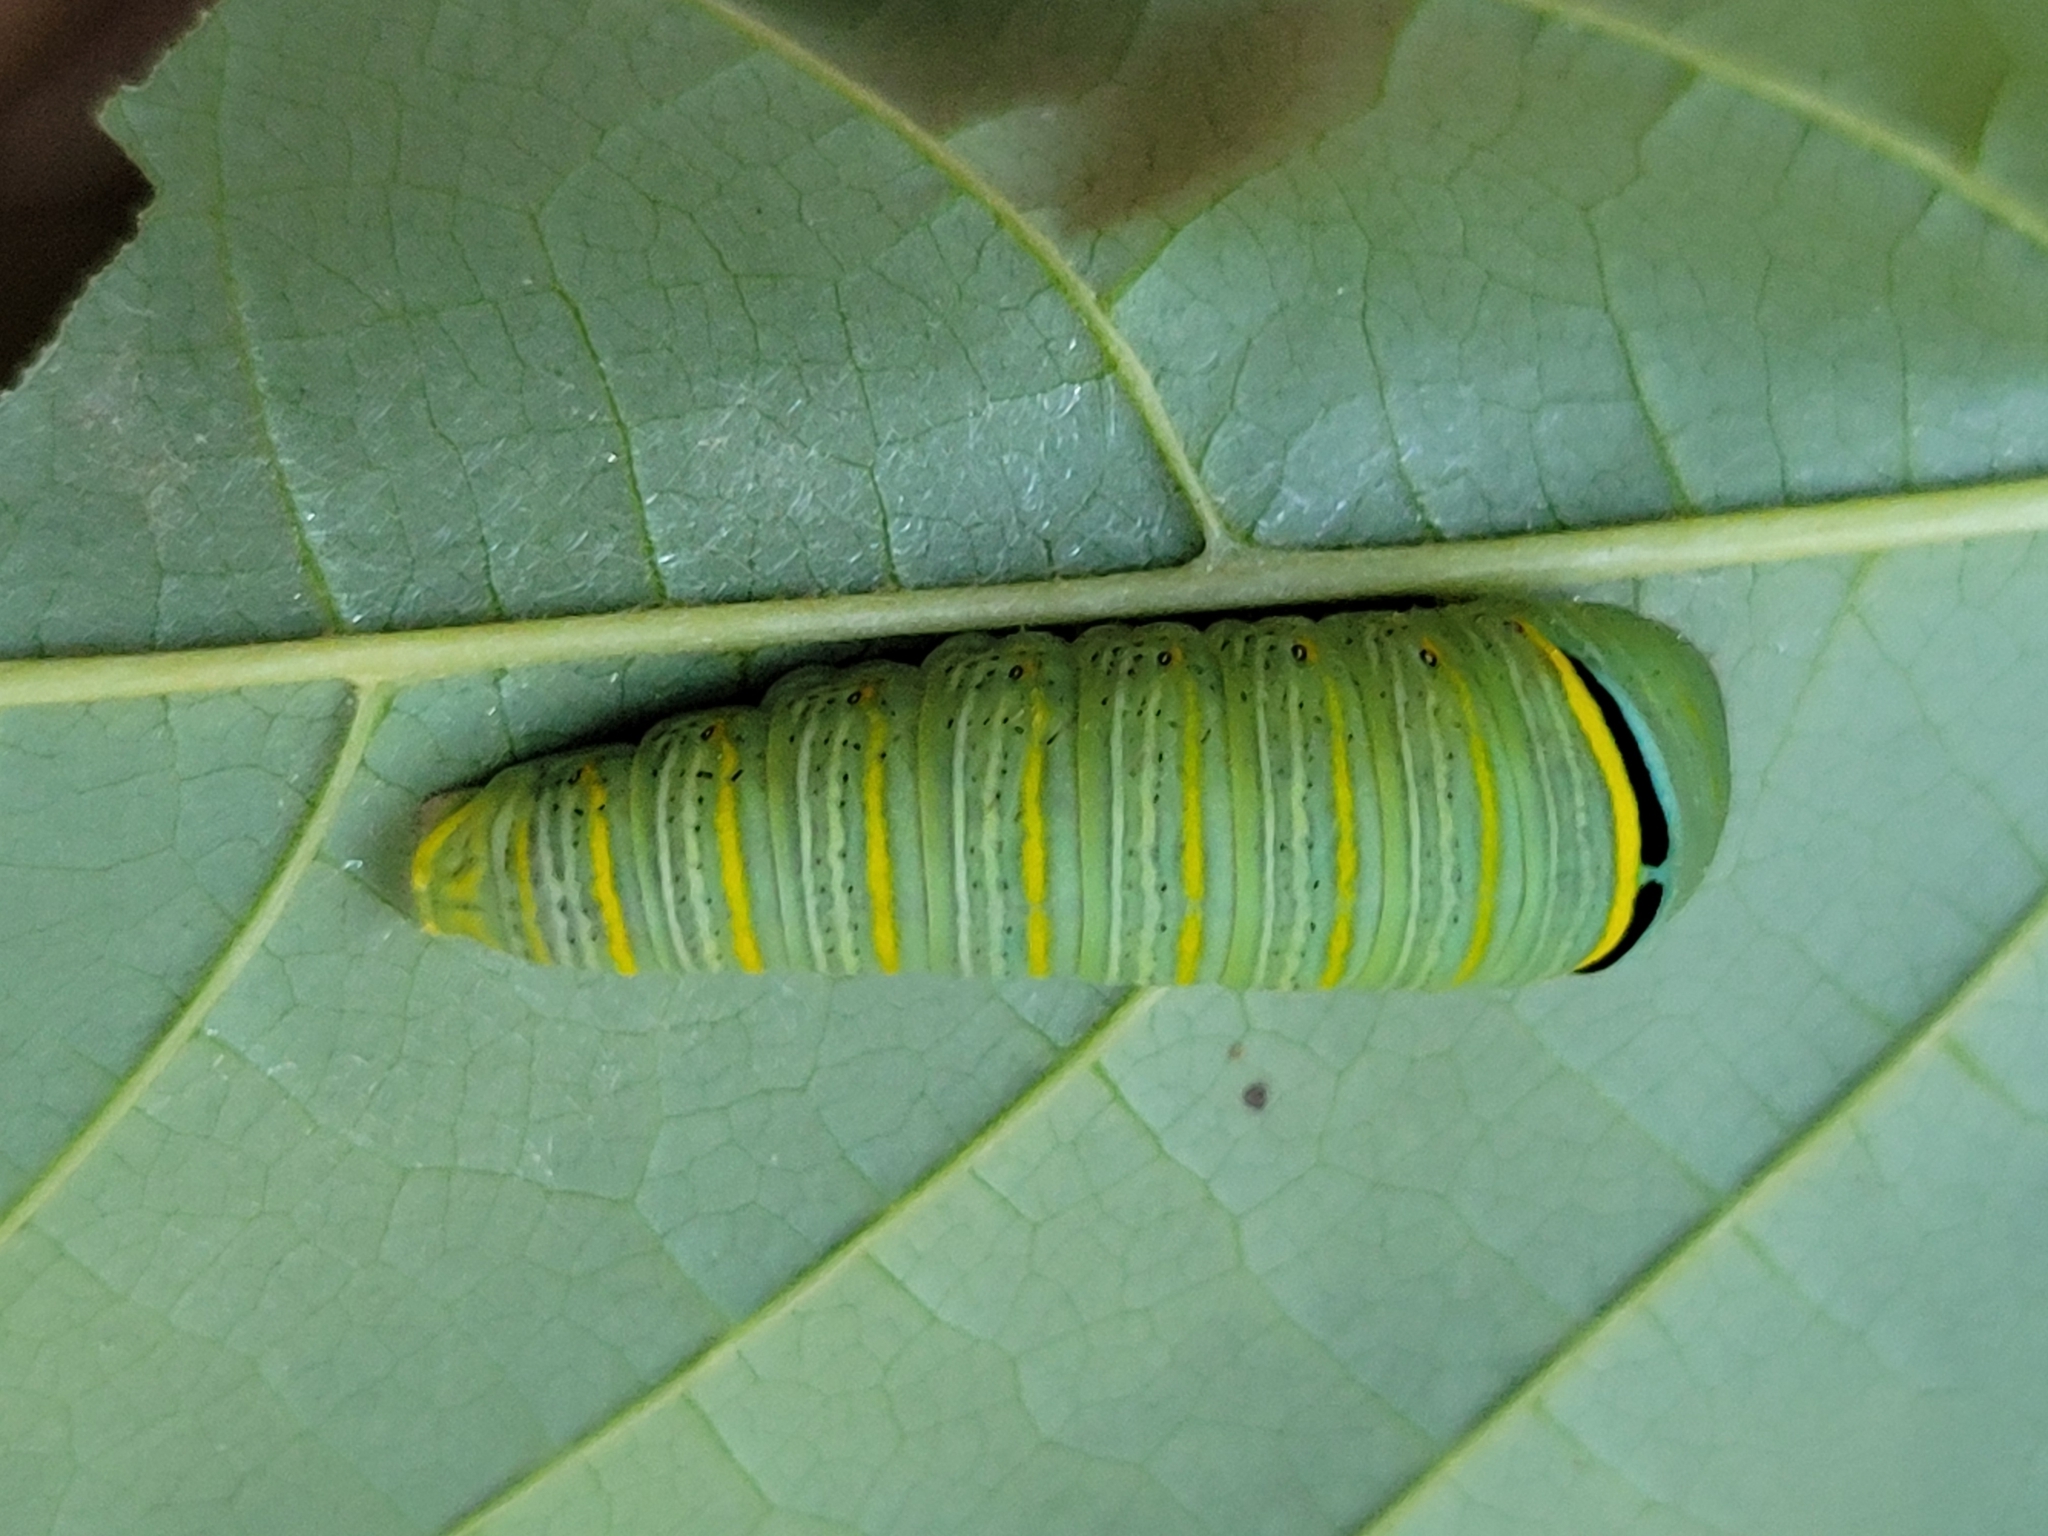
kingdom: Animalia
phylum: Arthropoda
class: Insecta
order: Lepidoptera
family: Papilionidae
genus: Protographium
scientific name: Protographium marcellus
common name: Zebra swallowtail
